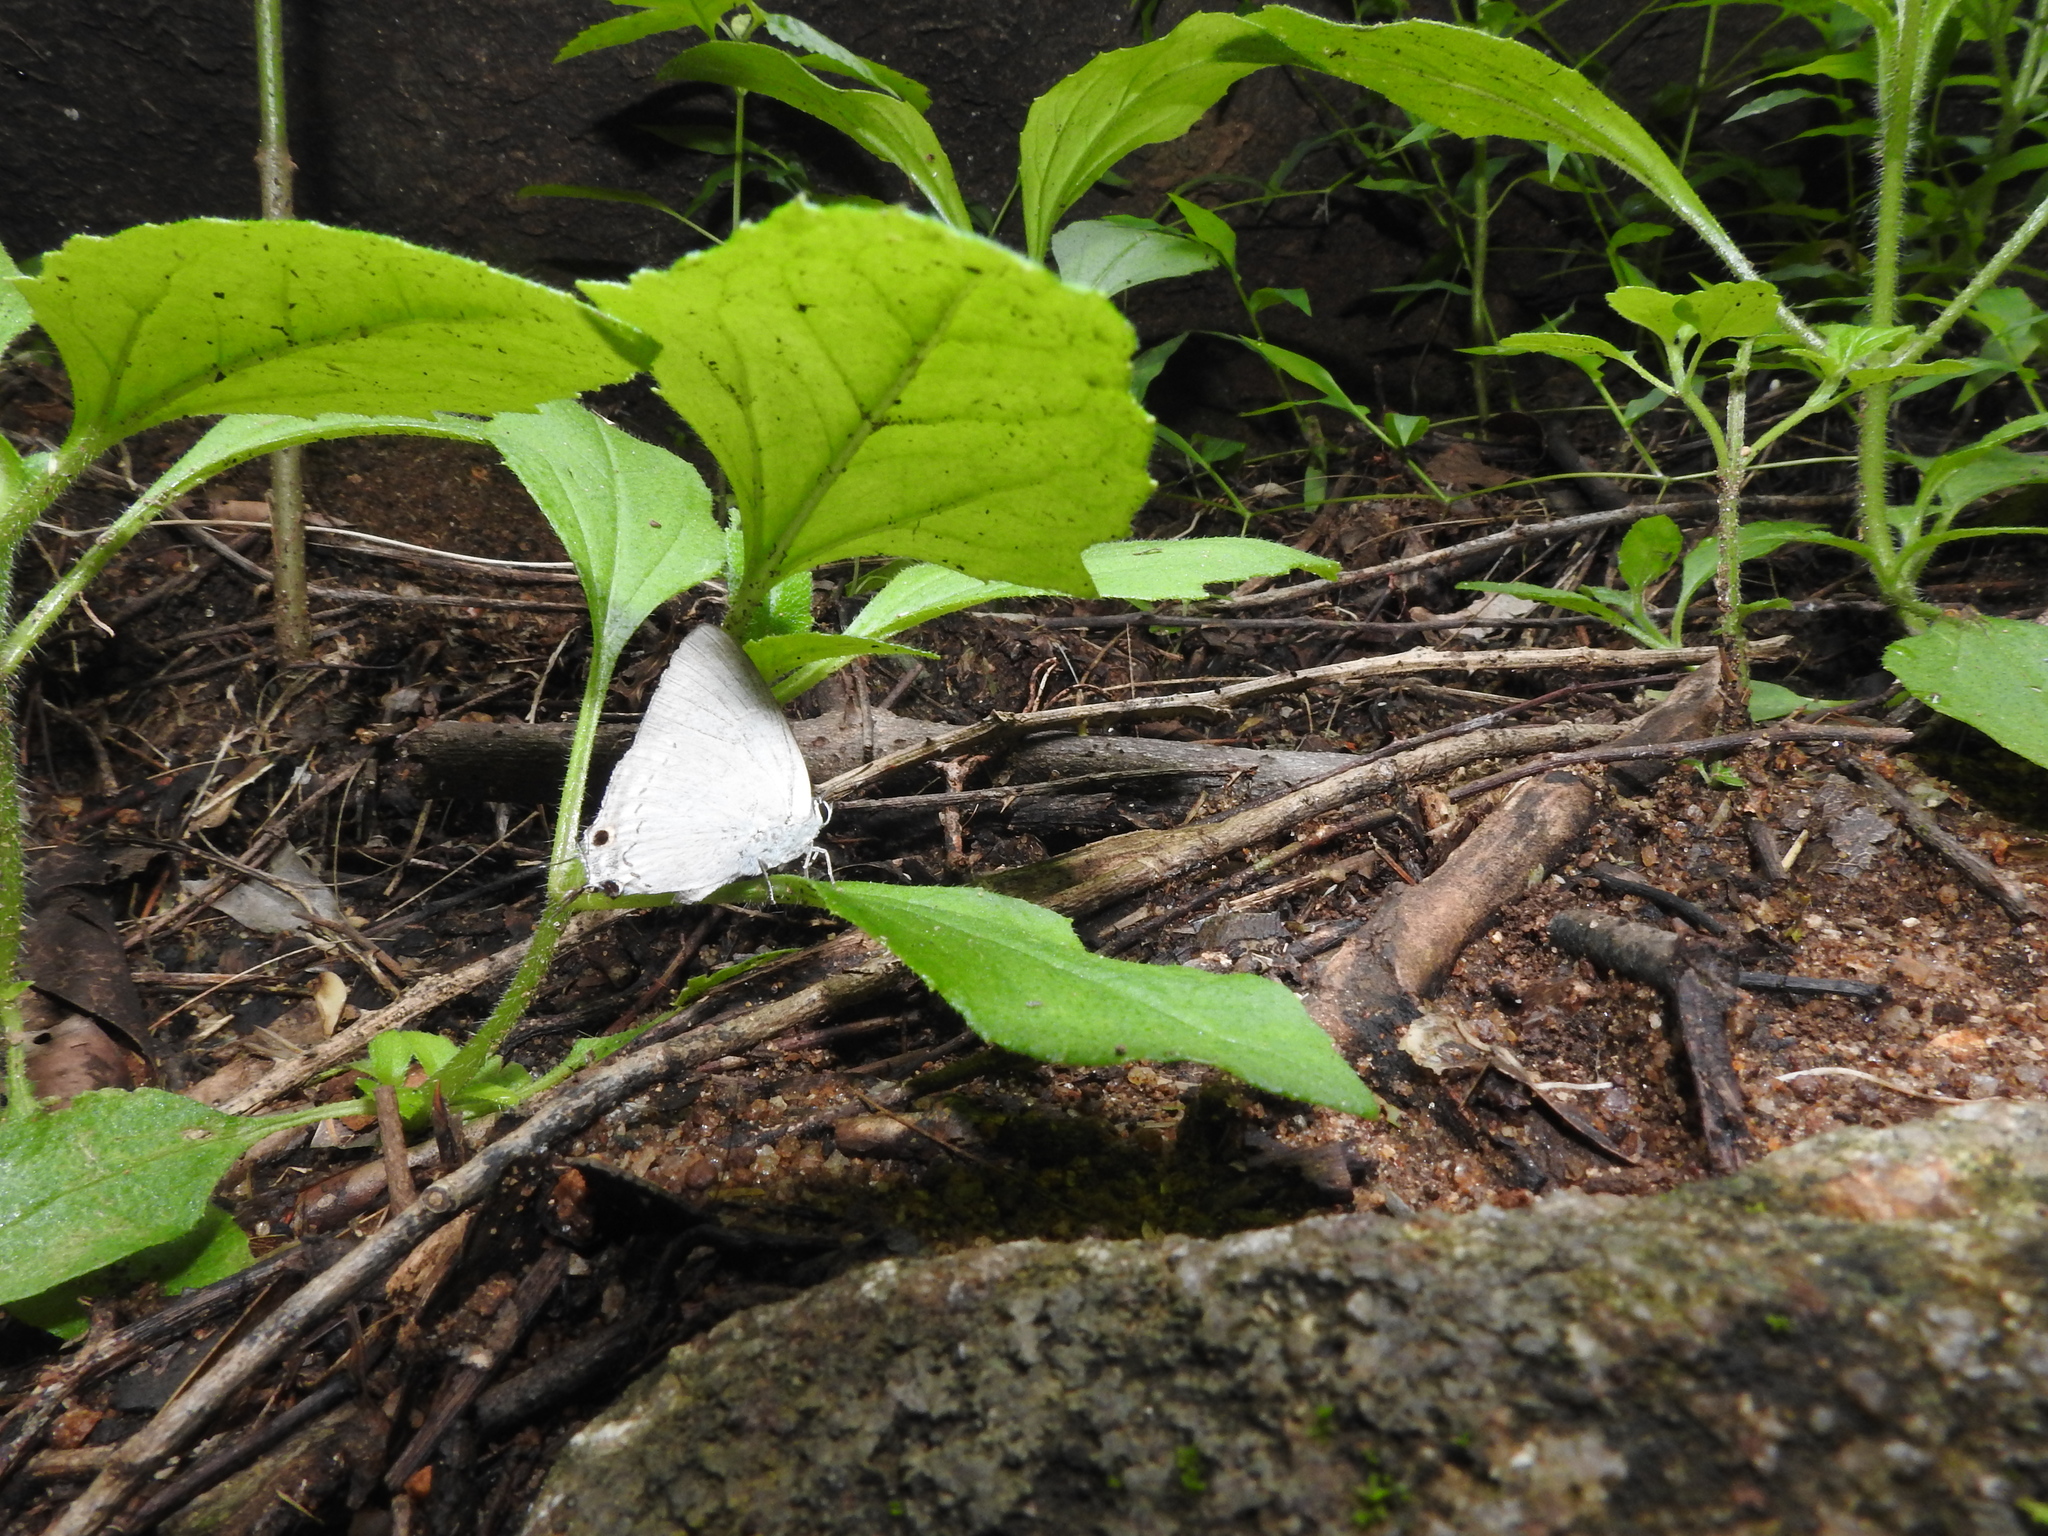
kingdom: Animalia
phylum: Arthropoda
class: Insecta
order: Lepidoptera
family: Lycaenidae
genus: Tajuria
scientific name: Tajuria cippus
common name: Peacock royal
